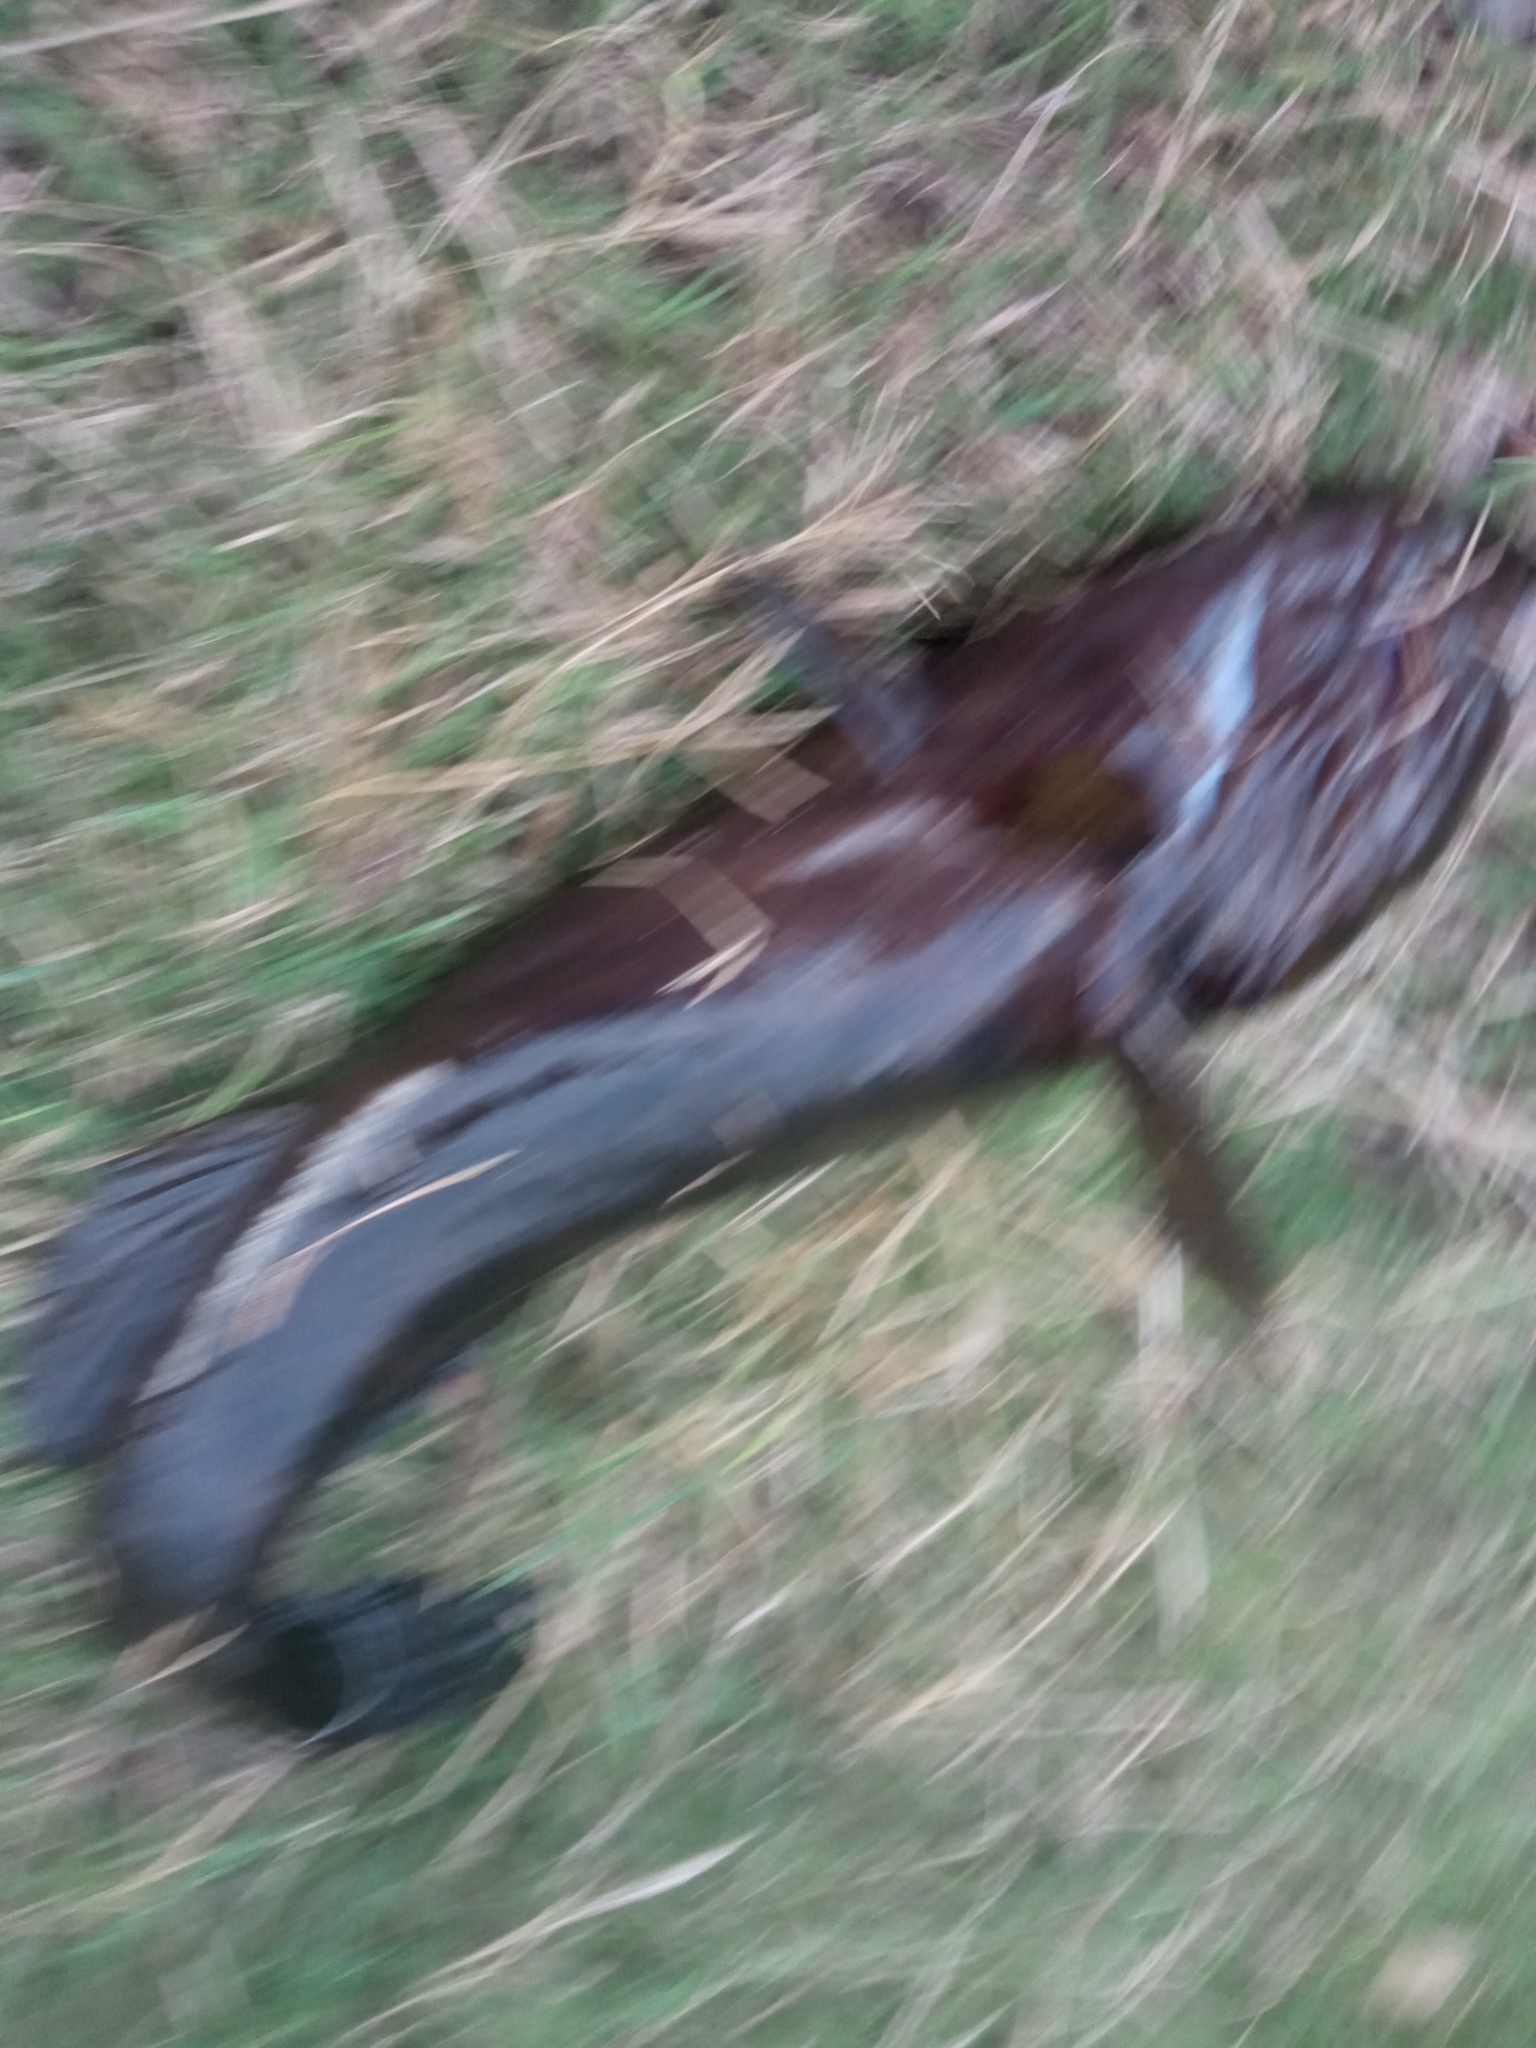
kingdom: Animalia
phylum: Chordata
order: Perciformes
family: Eleotridae
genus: Eleotris
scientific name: Eleotris picta
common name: Spotted sleeper
